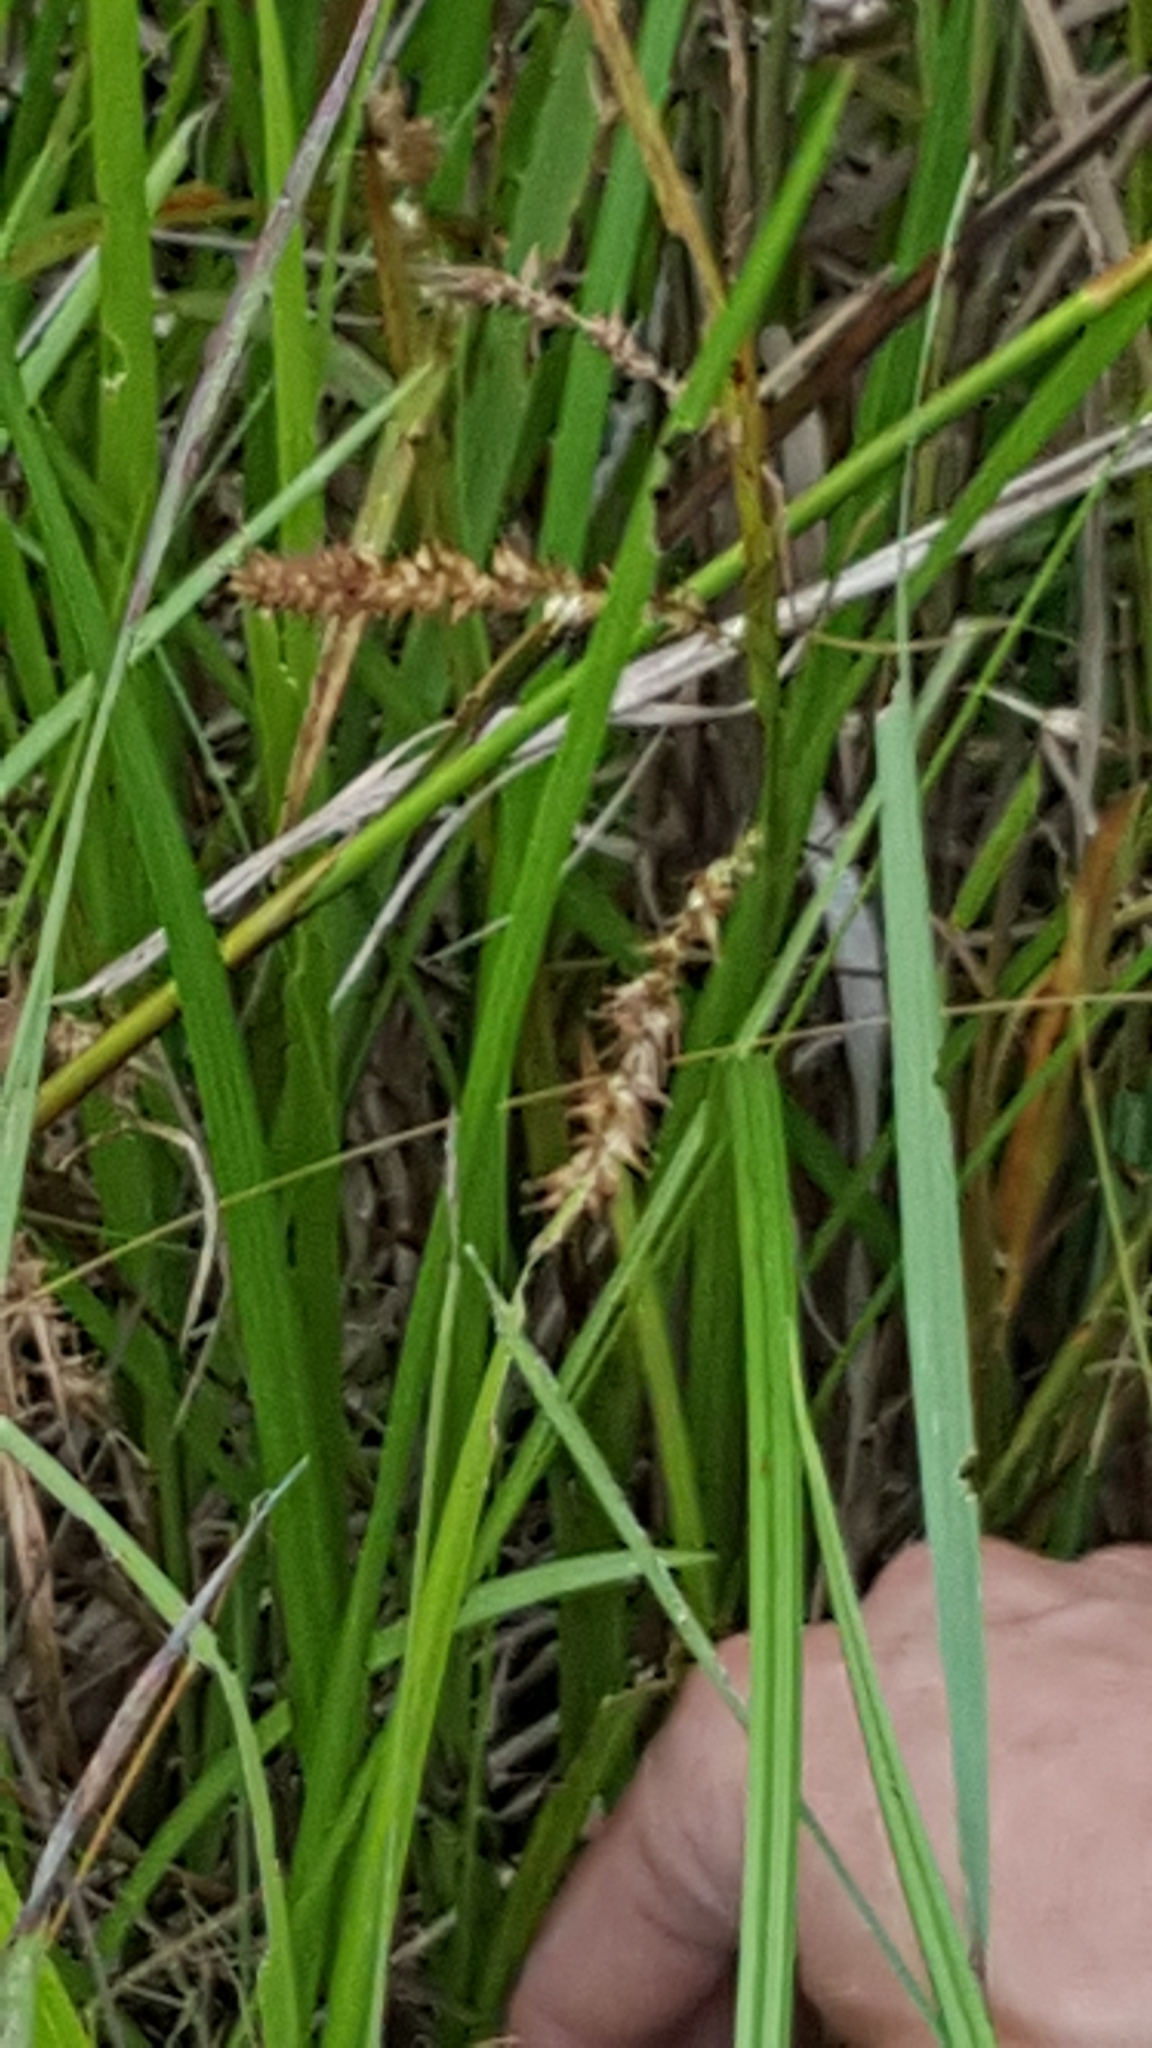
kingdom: Plantae
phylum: Tracheophyta
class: Liliopsida
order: Poales
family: Cyperaceae
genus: Carex
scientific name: Carex schweinitzii
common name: Schweinitz's sedge
